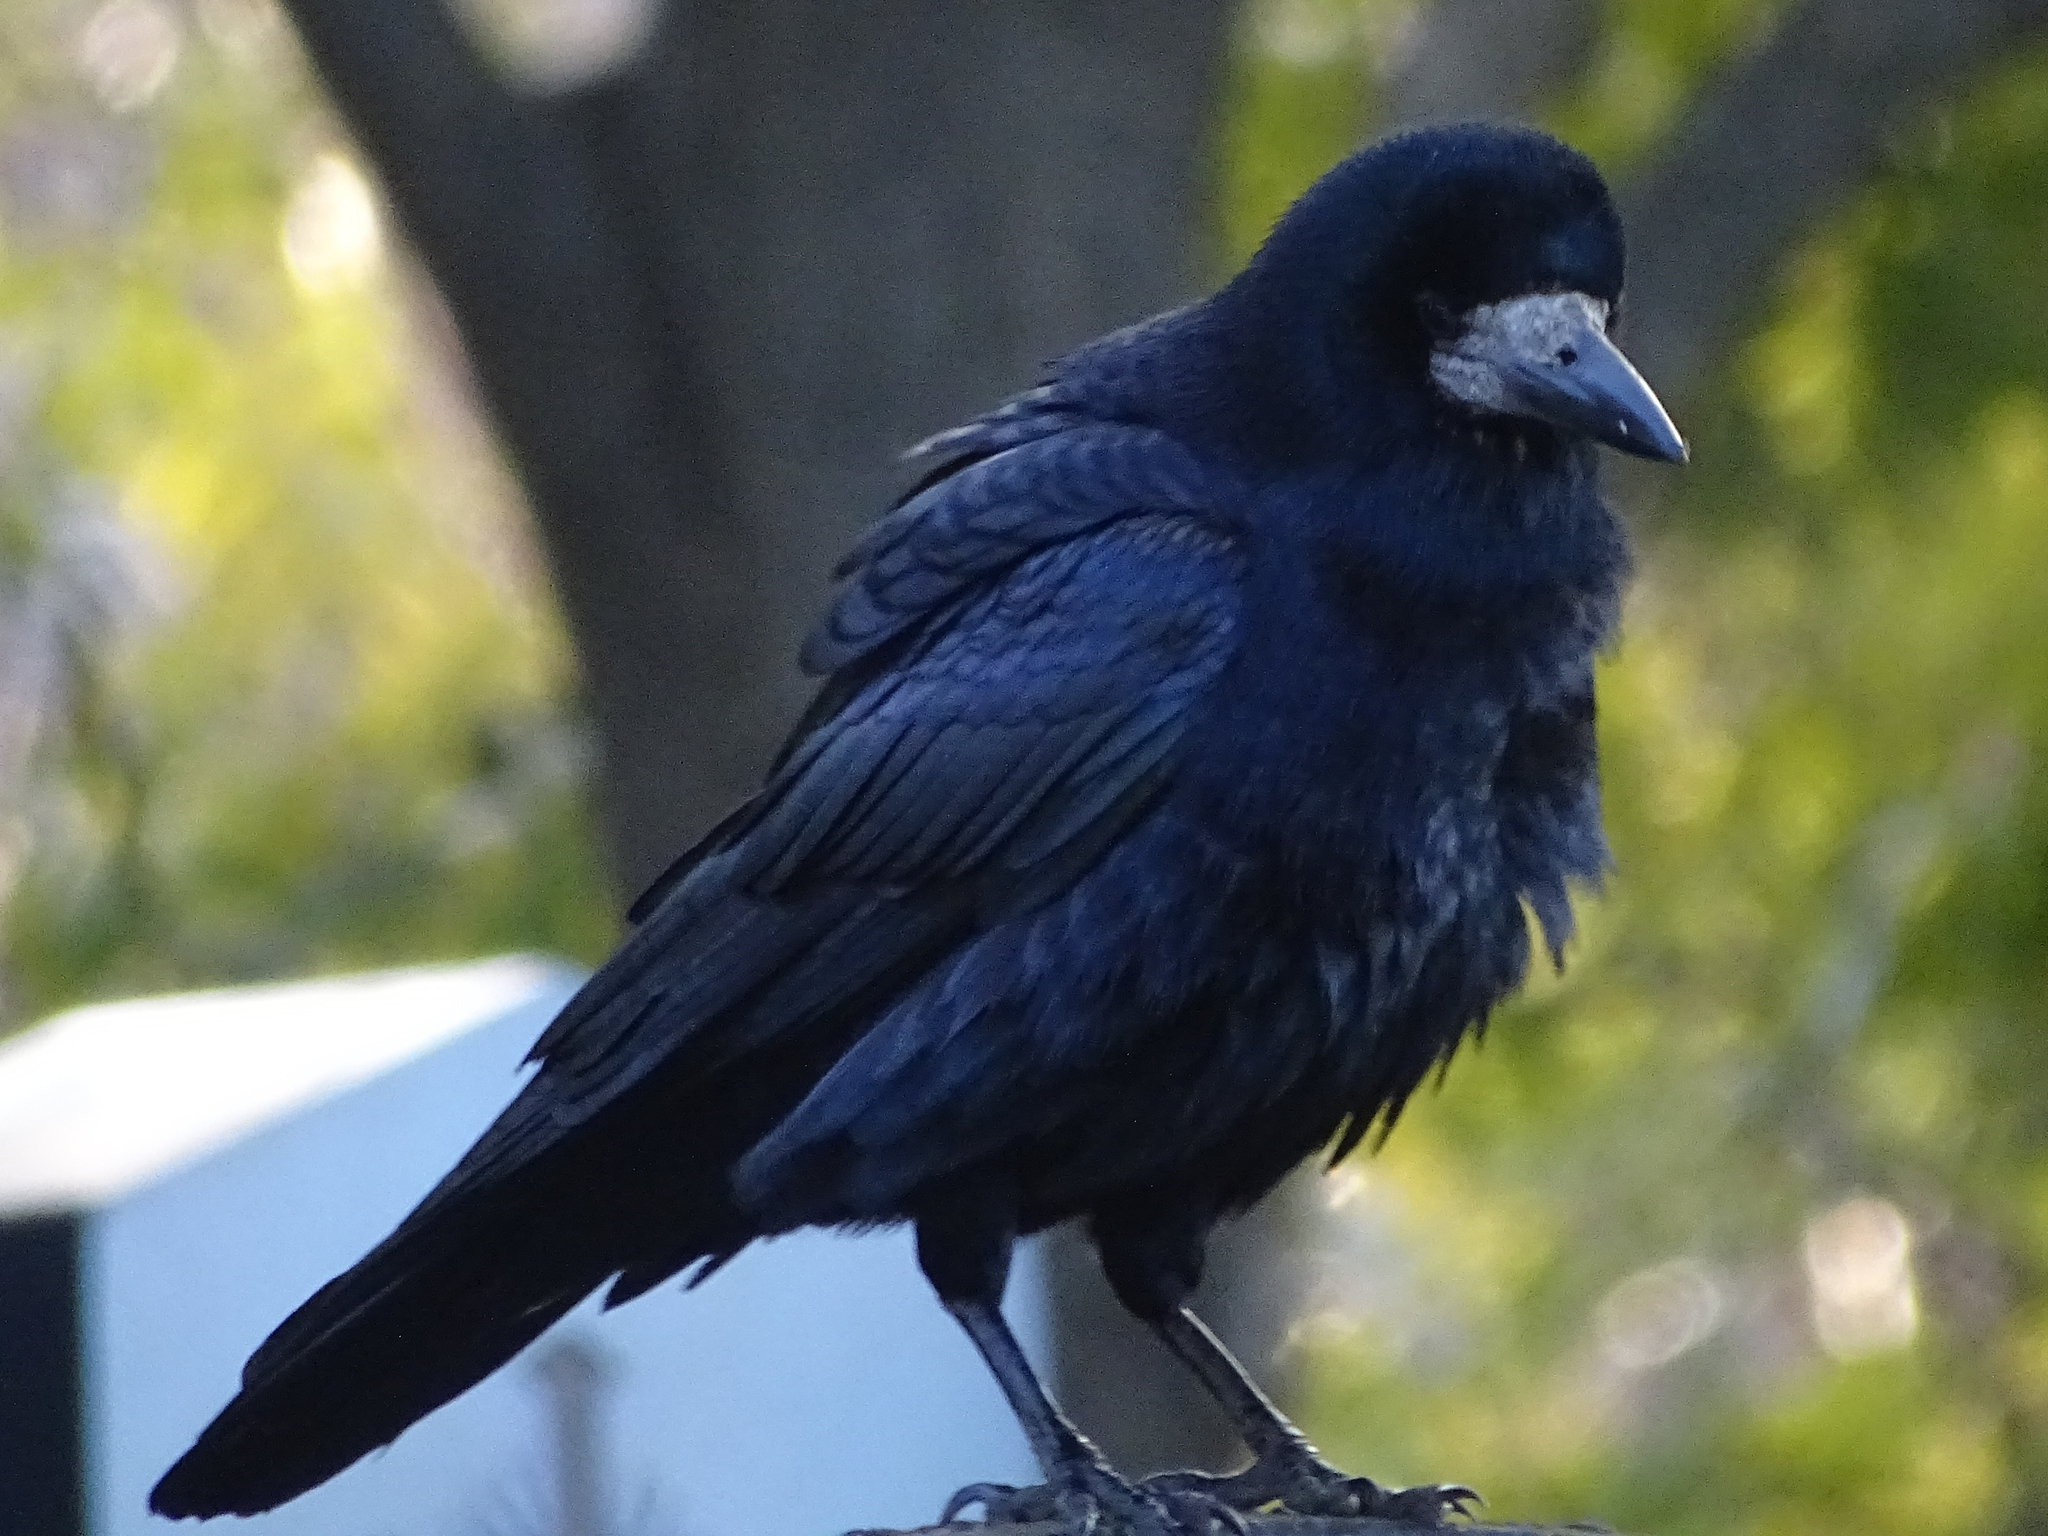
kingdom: Animalia
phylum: Chordata
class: Aves
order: Passeriformes
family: Corvidae
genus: Corvus
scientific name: Corvus frugilegus
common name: Rook
